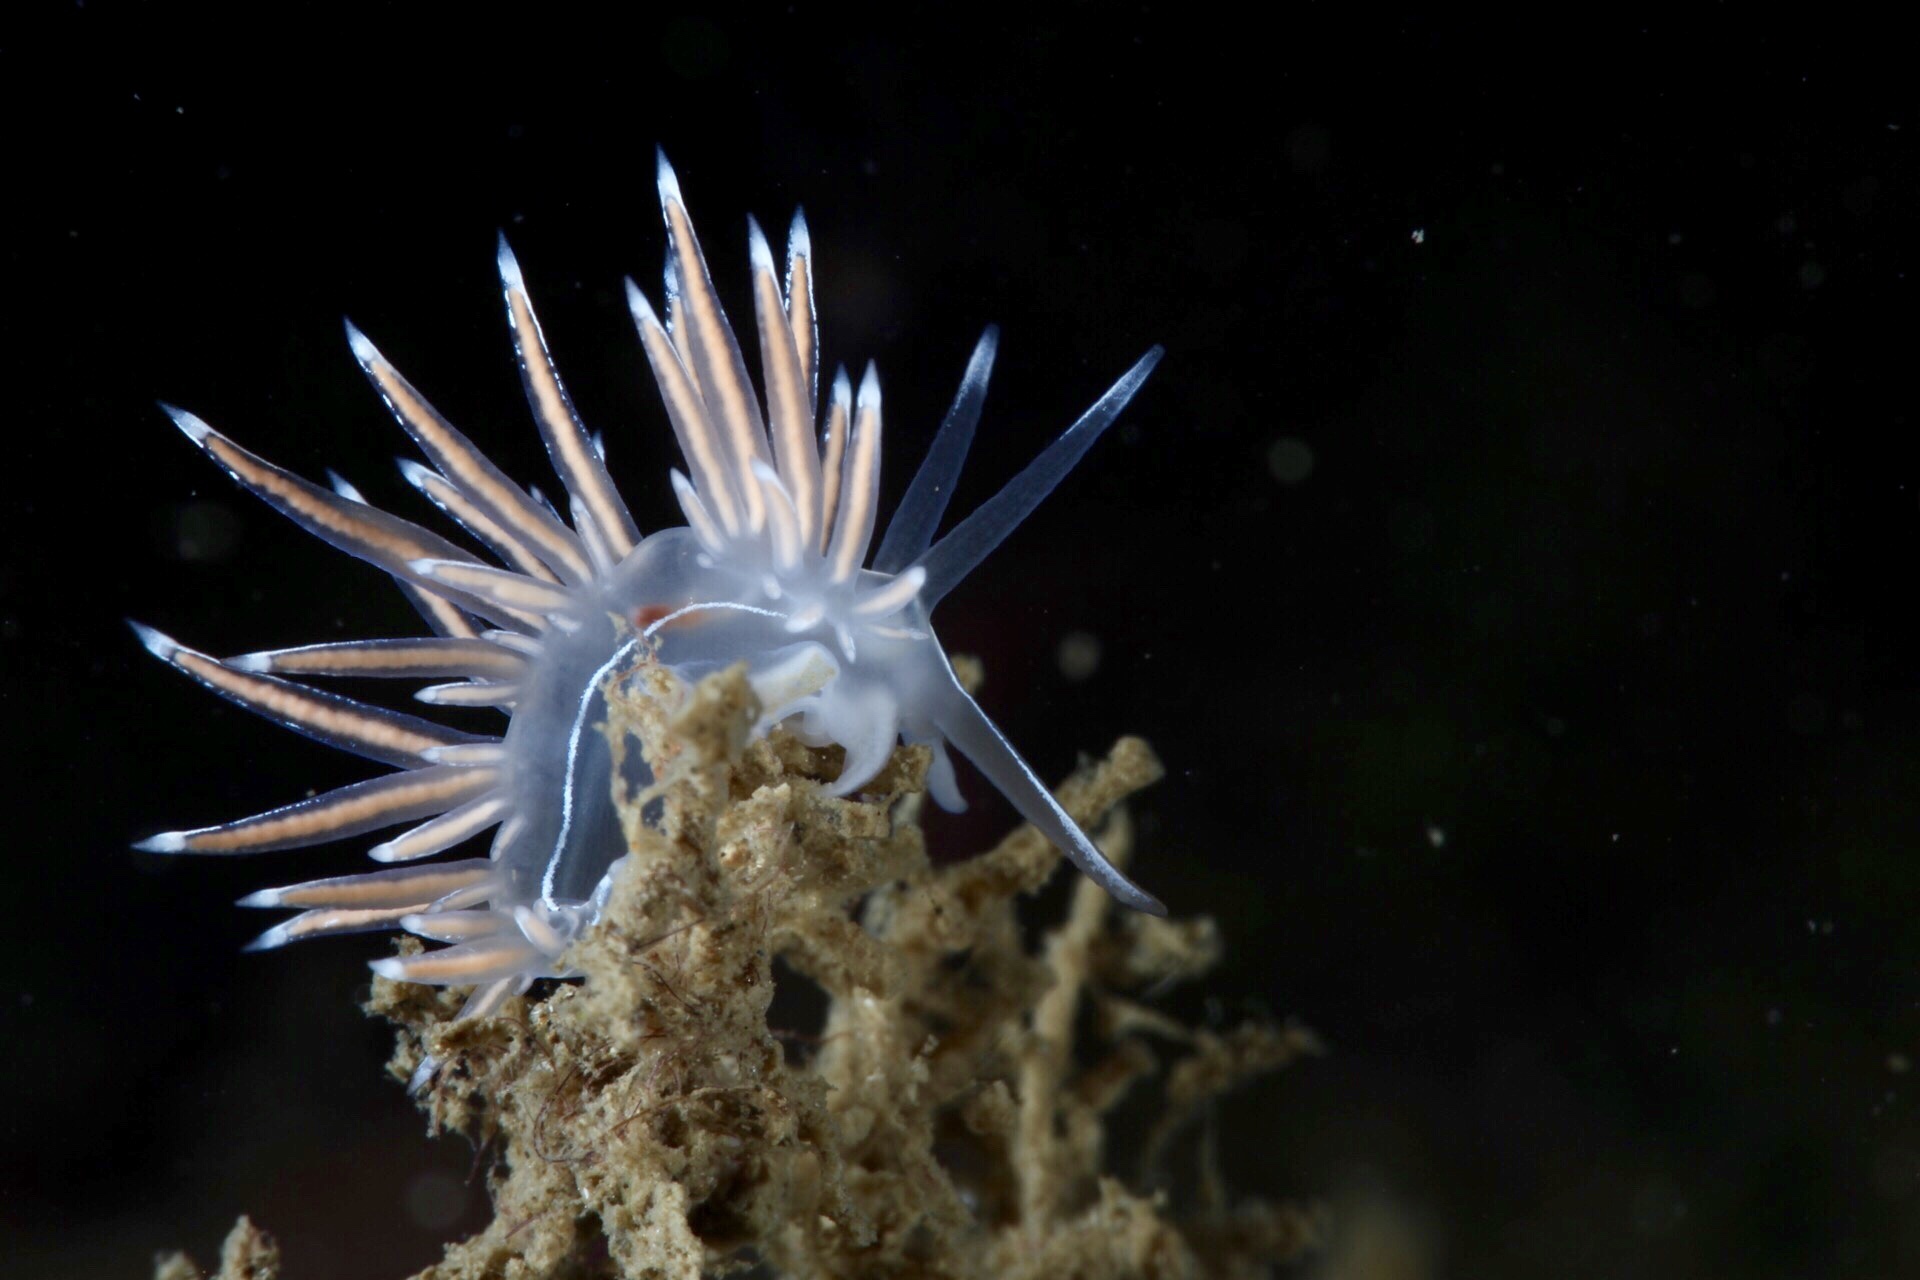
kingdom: Animalia
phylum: Mollusca
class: Gastropoda
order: Nudibranchia
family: Coryphellidae
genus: Coryphella
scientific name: Coryphella lineata
